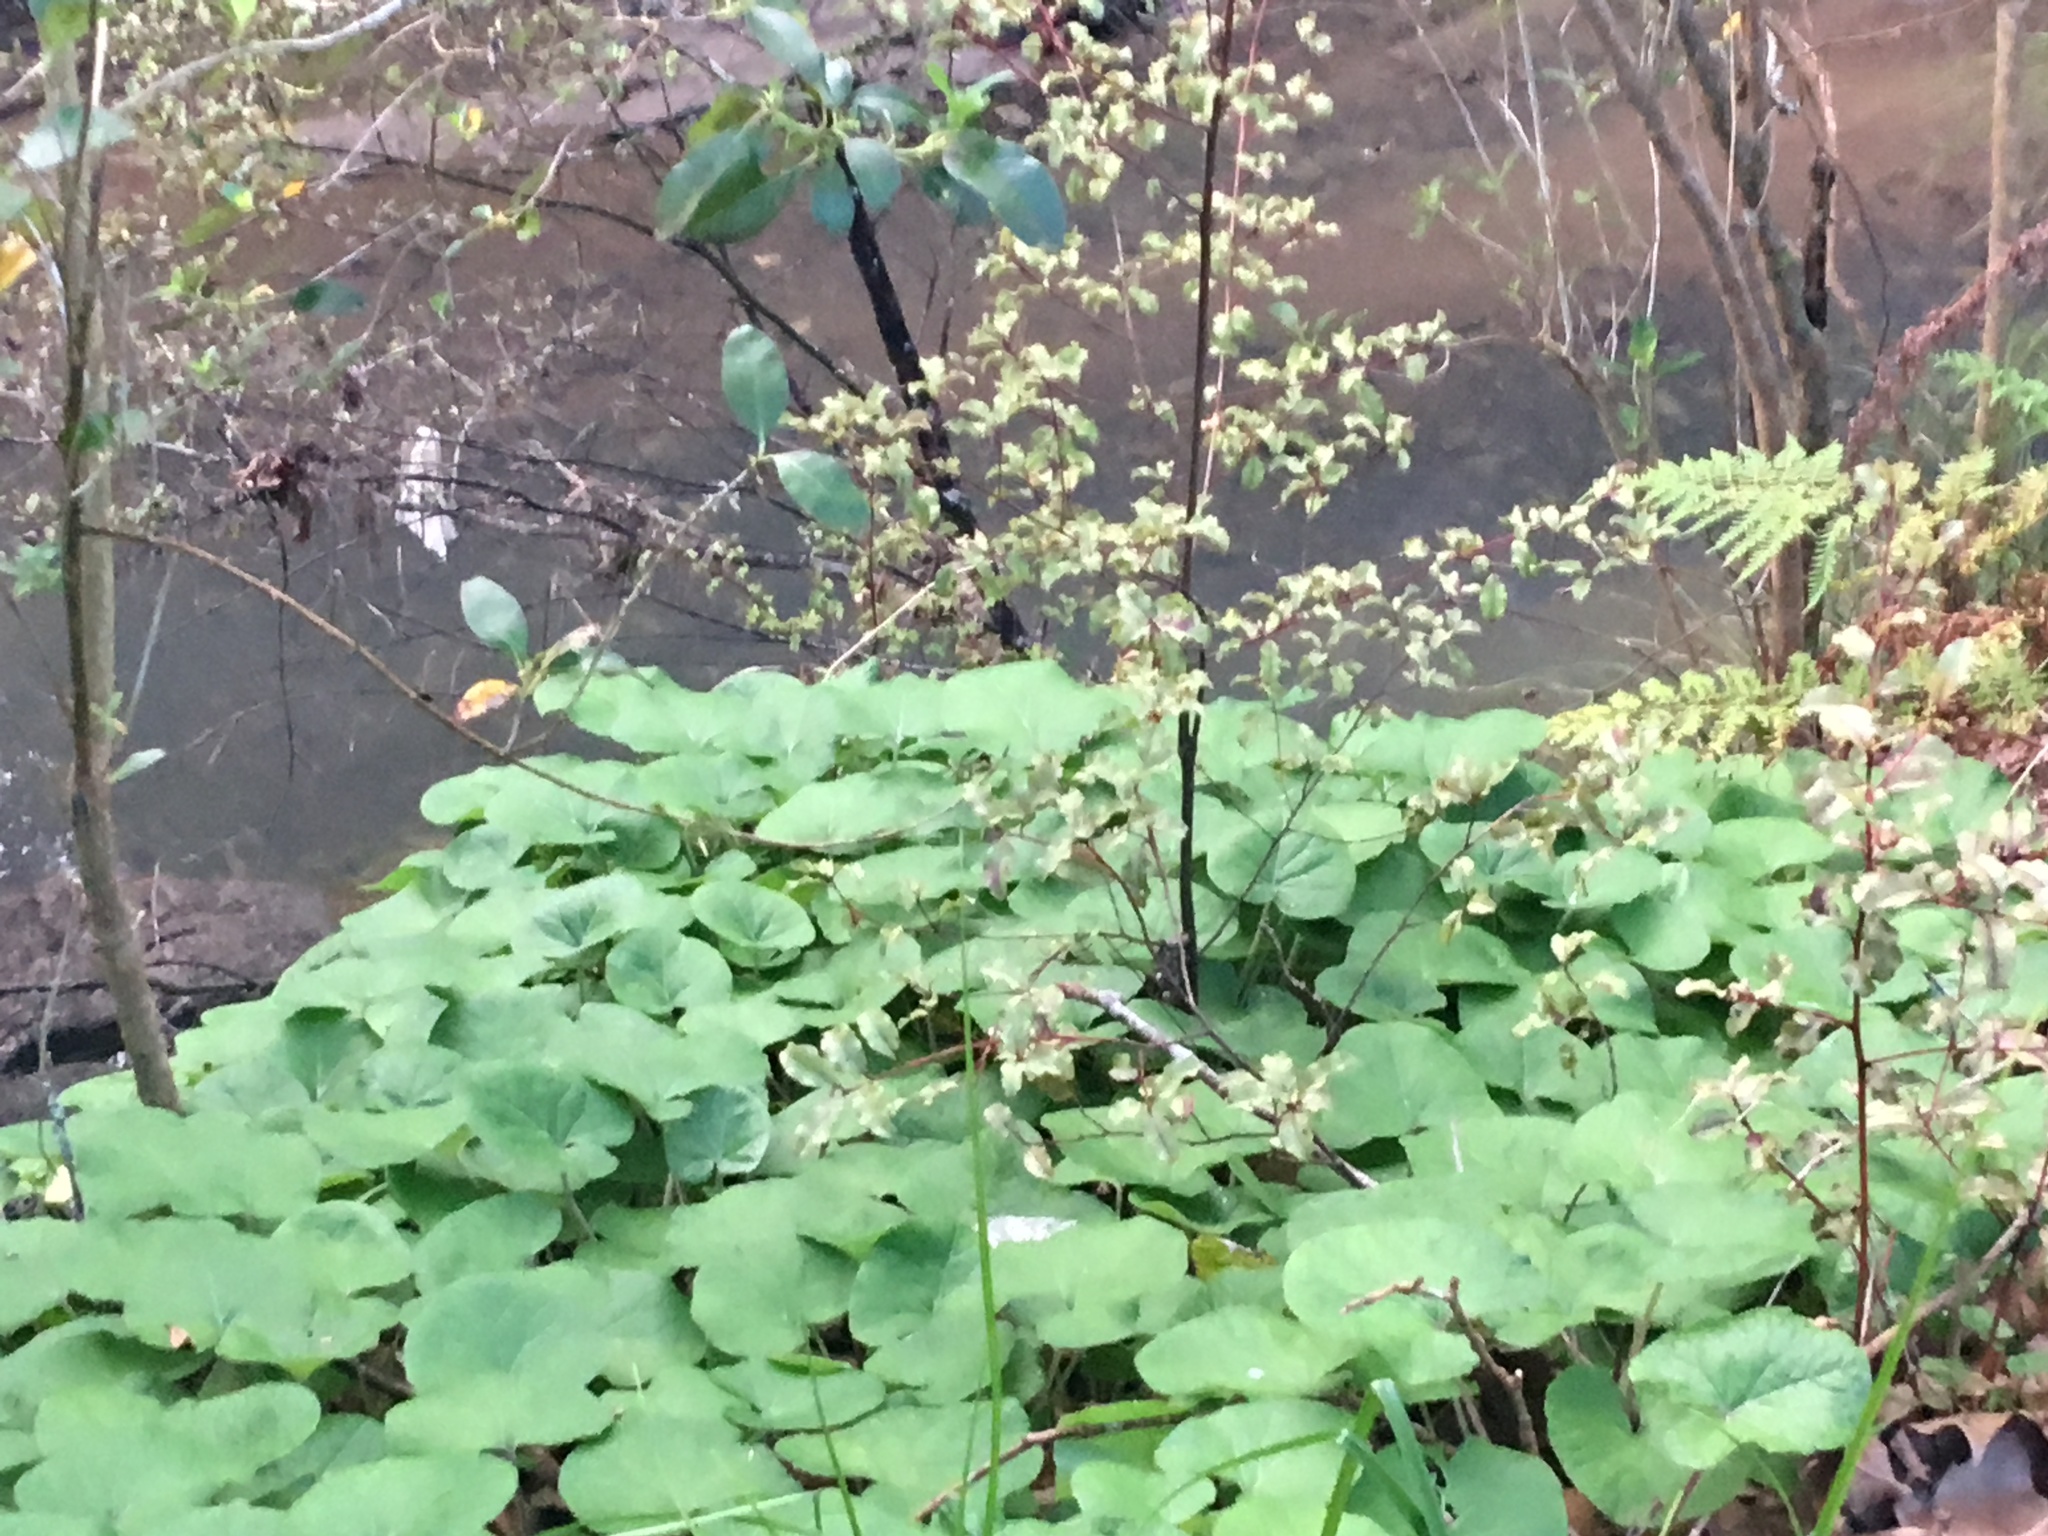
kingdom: Plantae
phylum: Tracheophyta
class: Magnoliopsida
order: Asterales
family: Asteraceae
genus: Petasites
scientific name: Petasites pyrenaicus
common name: Winter heliotrope
